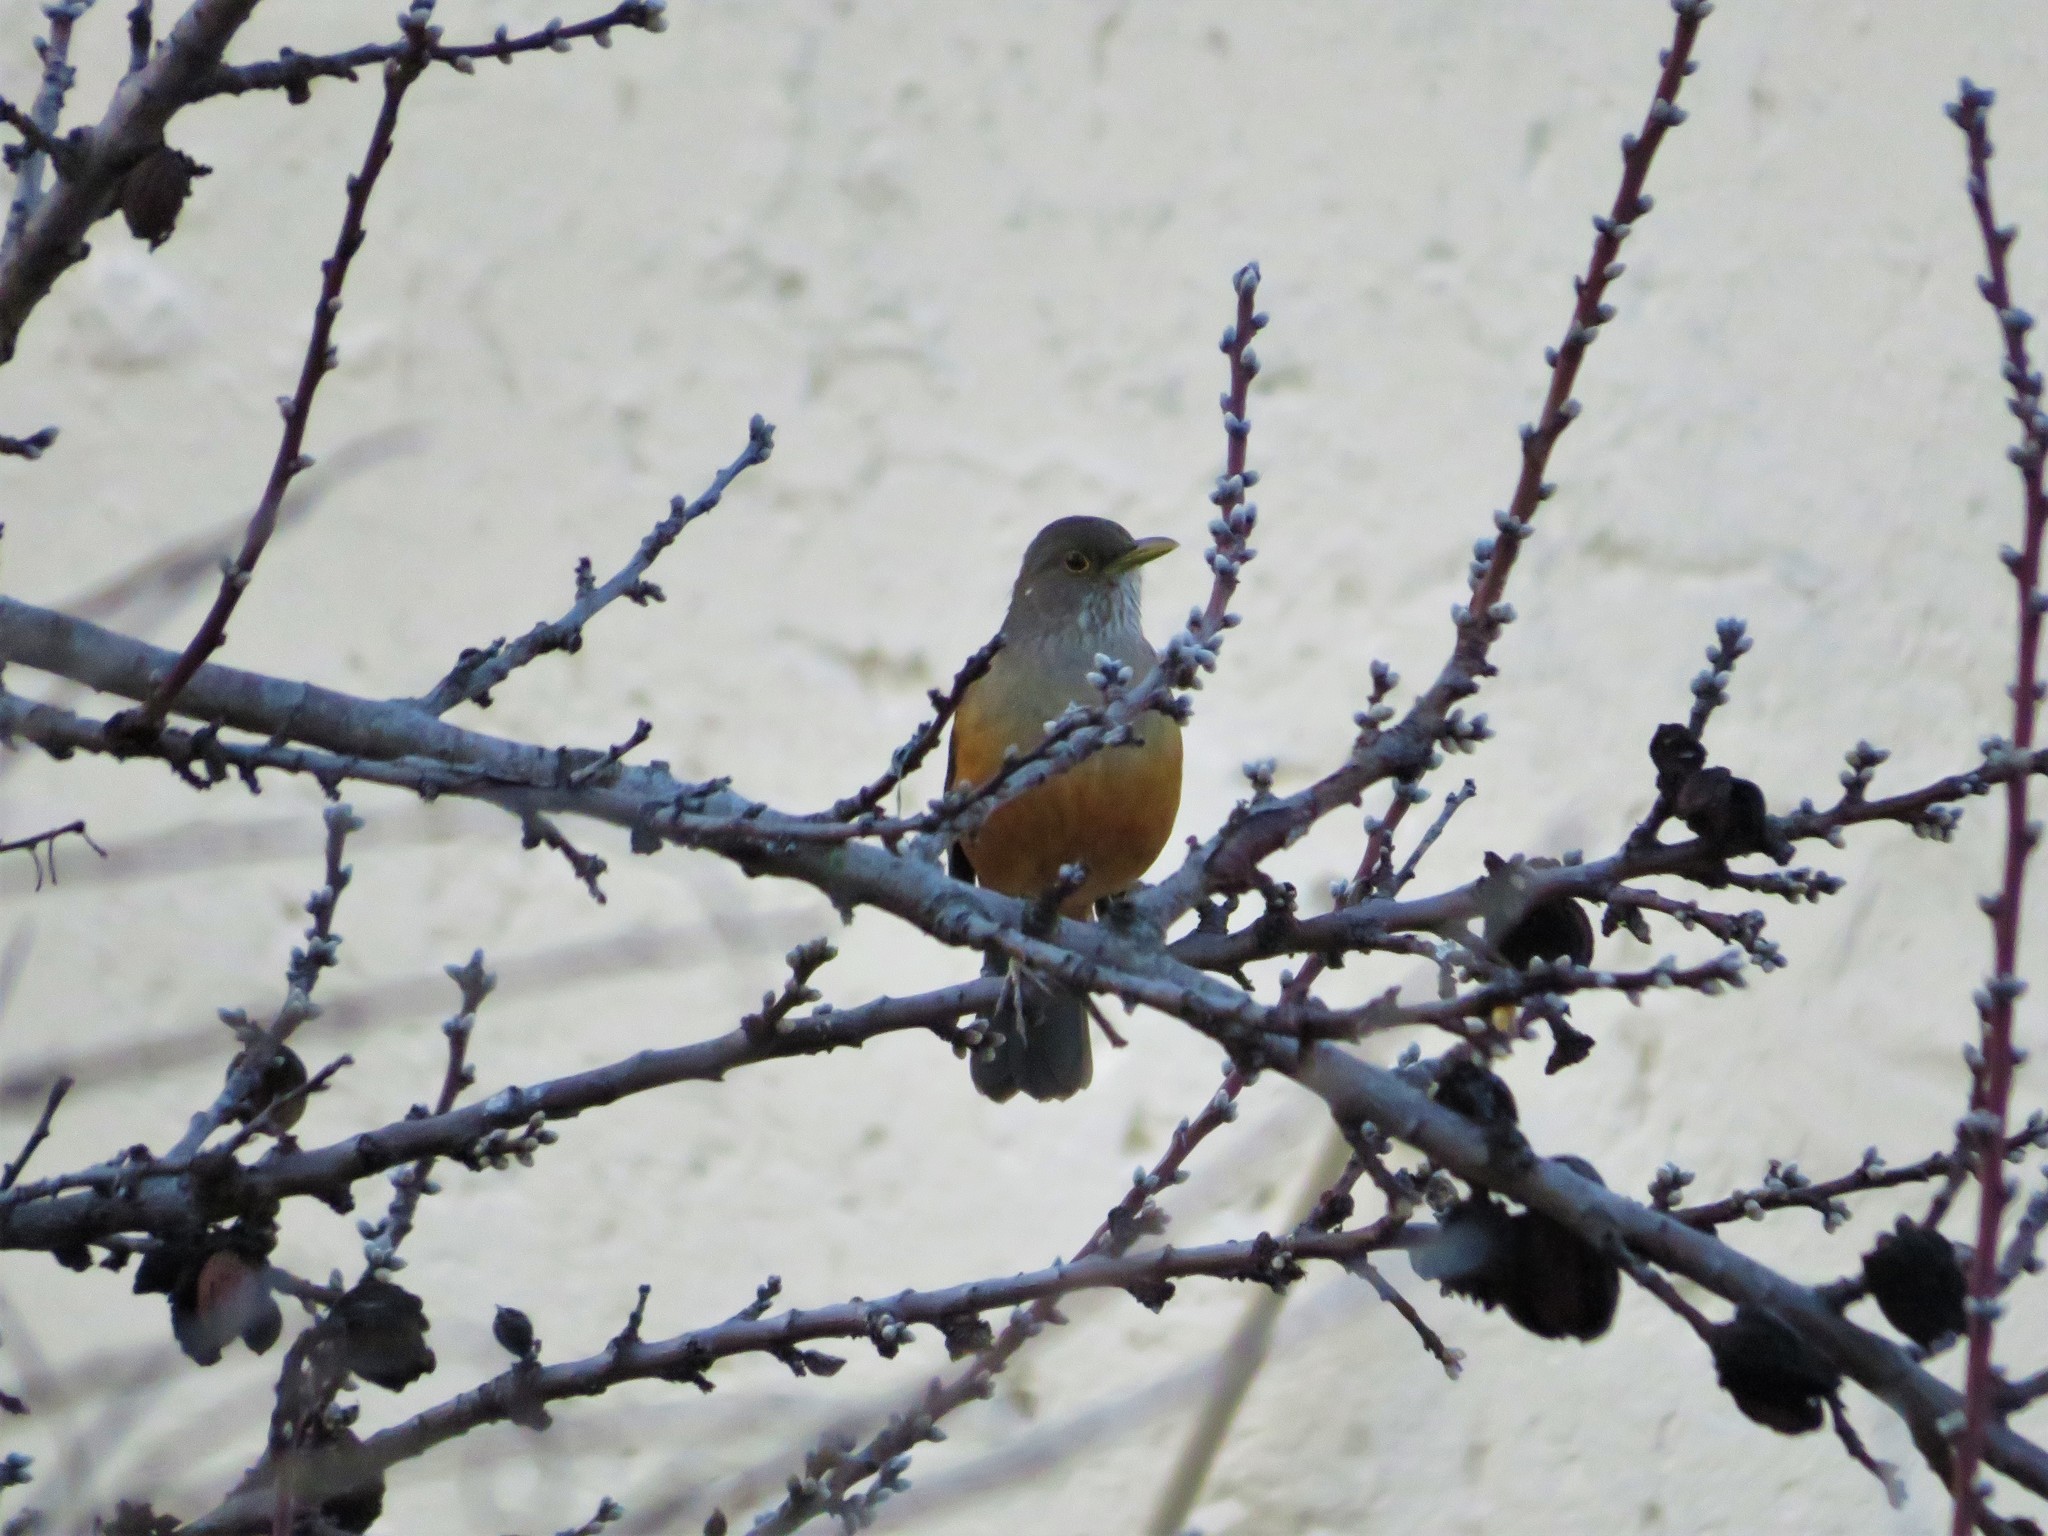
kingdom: Animalia
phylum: Chordata
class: Aves
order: Passeriformes
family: Turdidae
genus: Turdus
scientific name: Turdus rufiventris
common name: Rufous-bellied thrush
